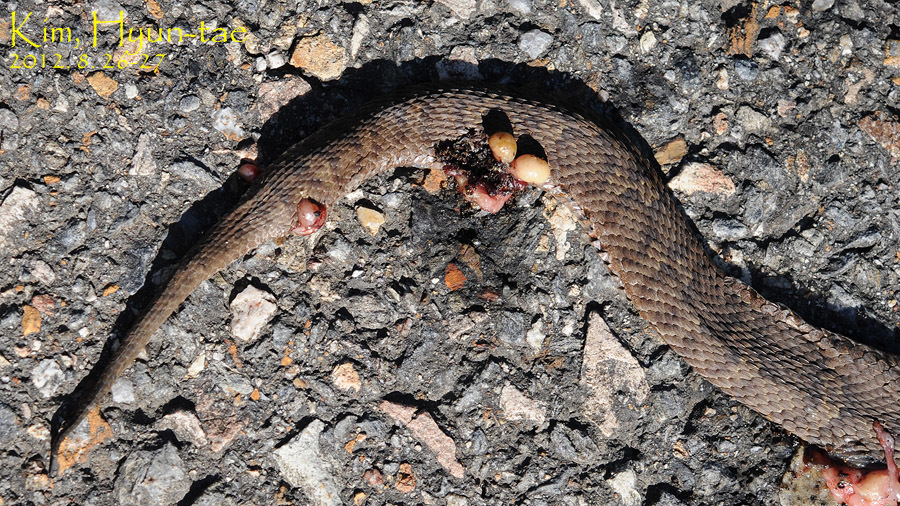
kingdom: Animalia
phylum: Chordata
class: Squamata
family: Viperidae
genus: Gloydius
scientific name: Gloydius ussuriensis
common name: Ussuri mamushi
